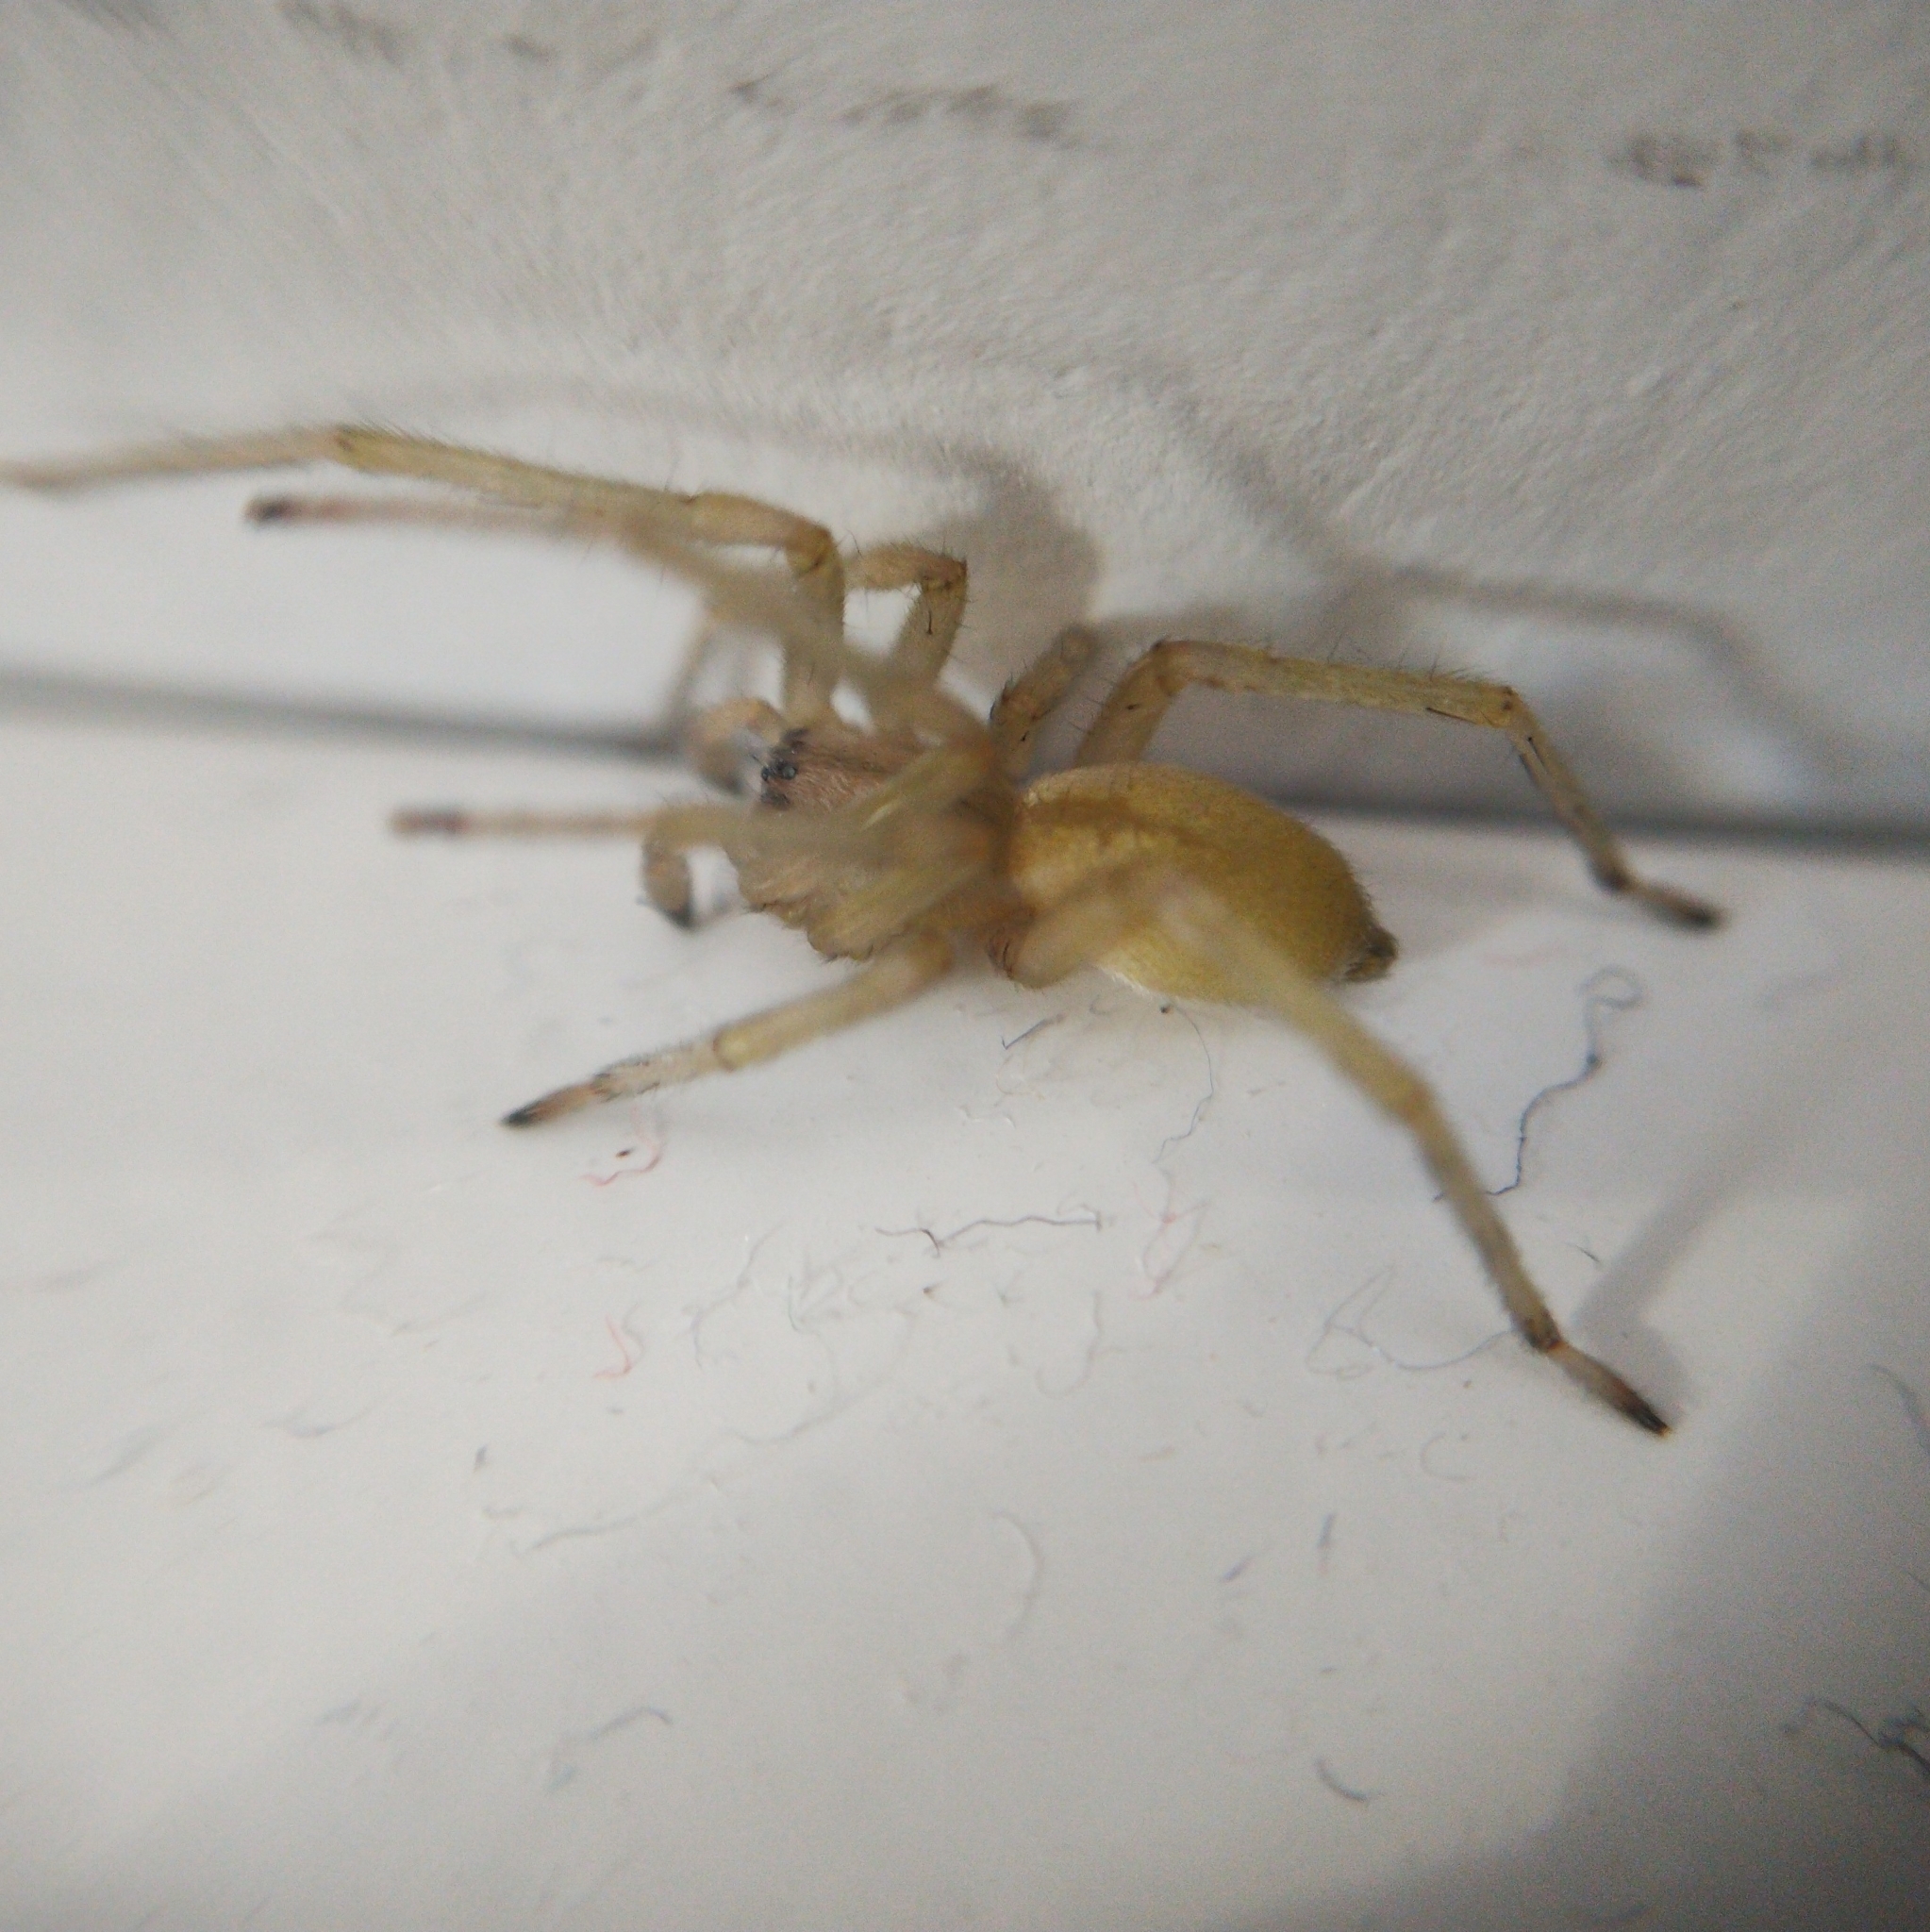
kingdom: Animalia
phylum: Arthropoda
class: Arachnida
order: Araneae
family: Cheiracanthiidae
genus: Cheiracanthium
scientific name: Cheiracanthium mildei
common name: Northern yellow sac spider
